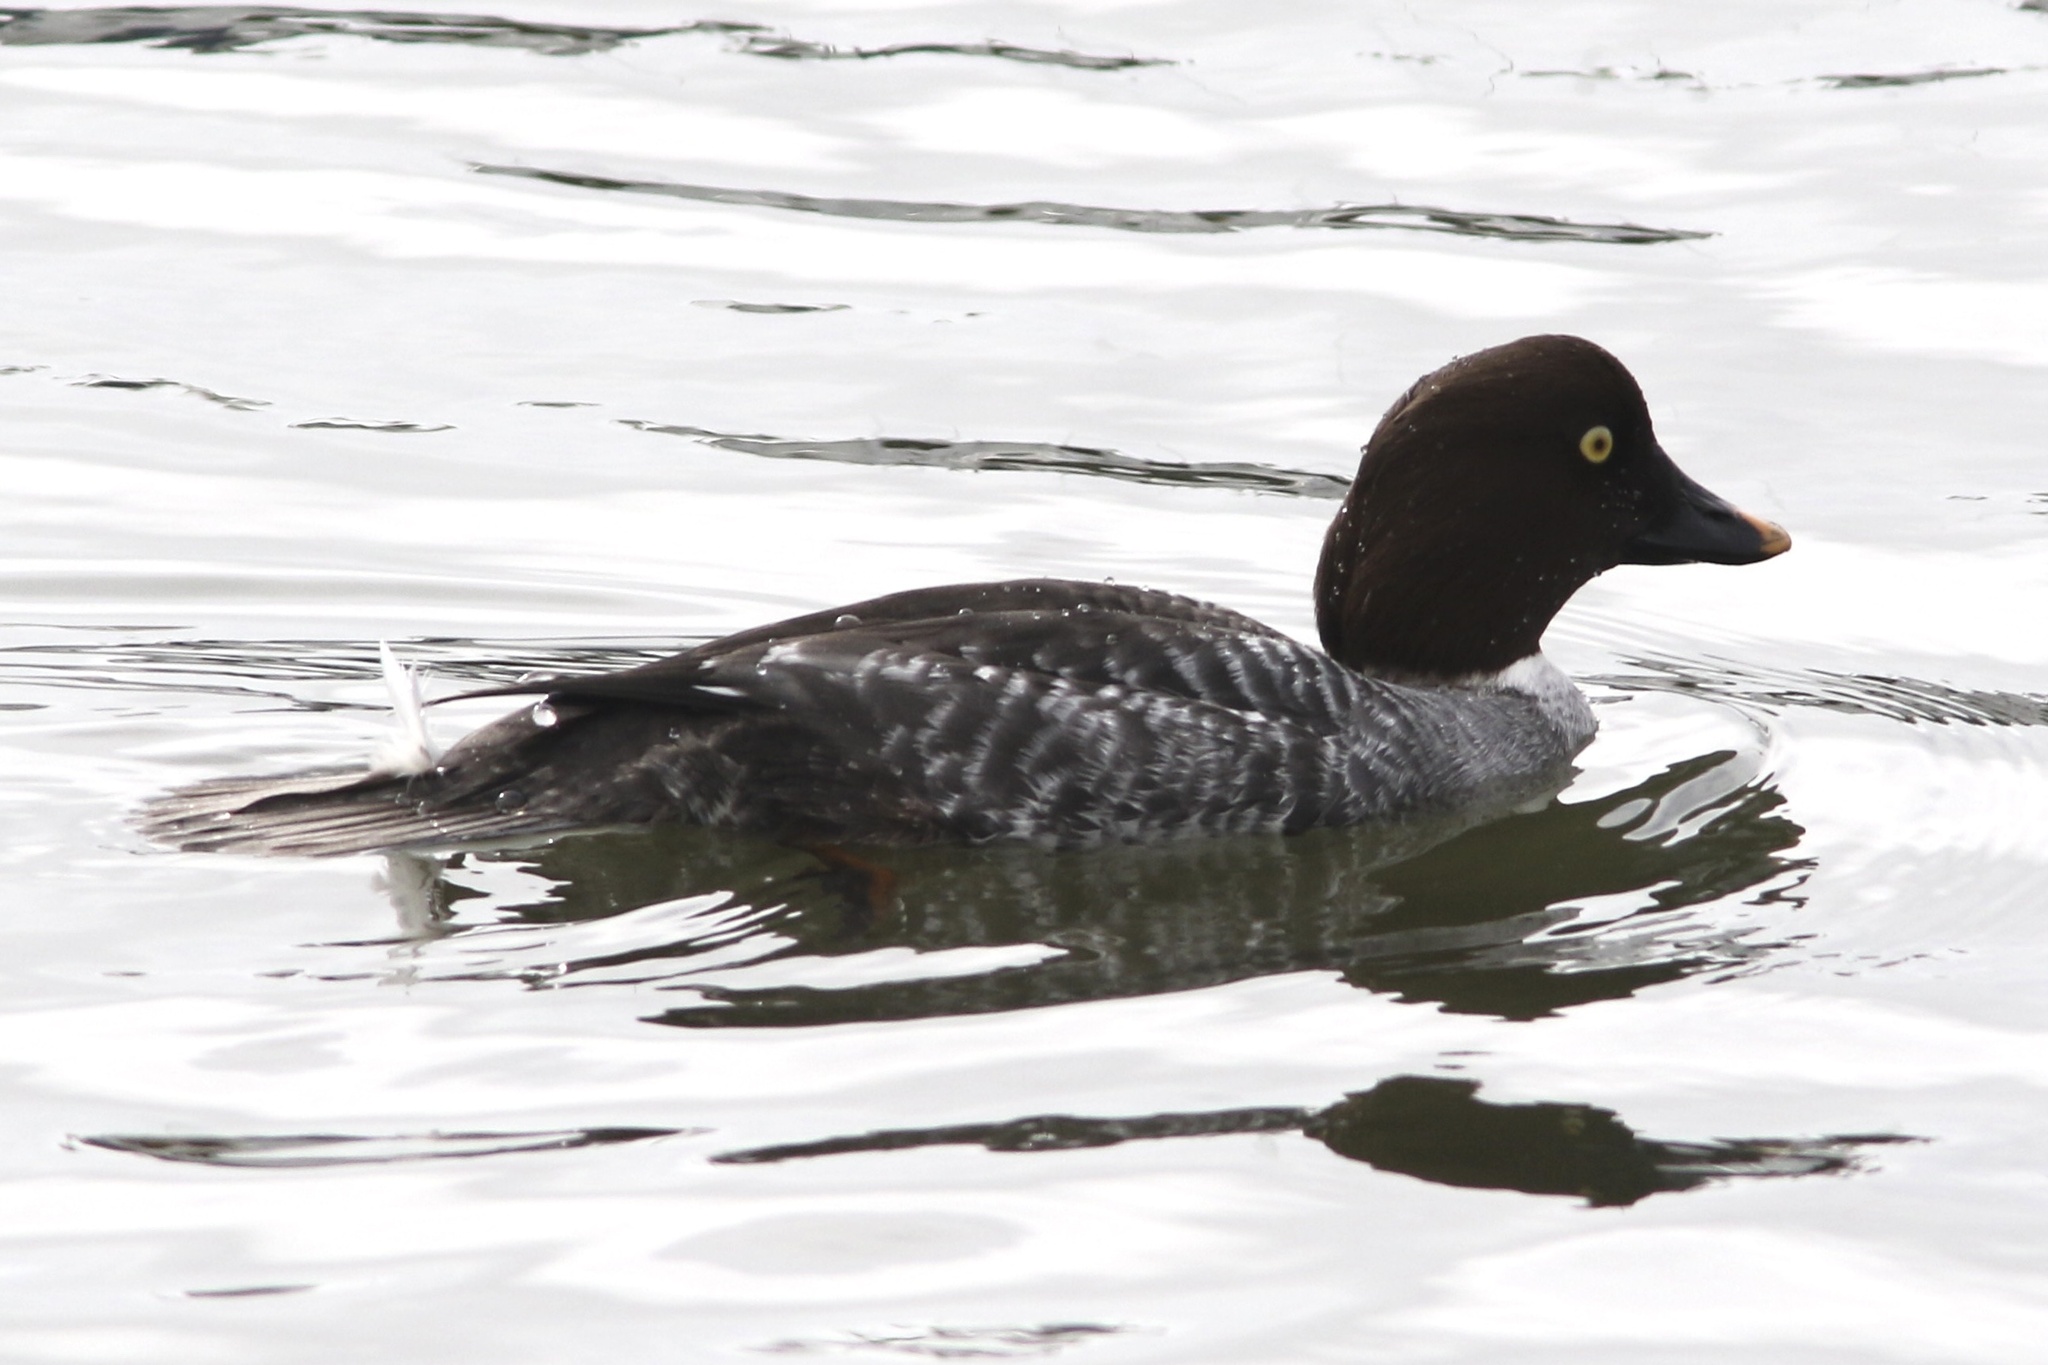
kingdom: Animalia
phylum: Chordata
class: Aves
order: Anseriformes
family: Anatidae
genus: Bucephala
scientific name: Bucephala clangula
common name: Common goldeneye
